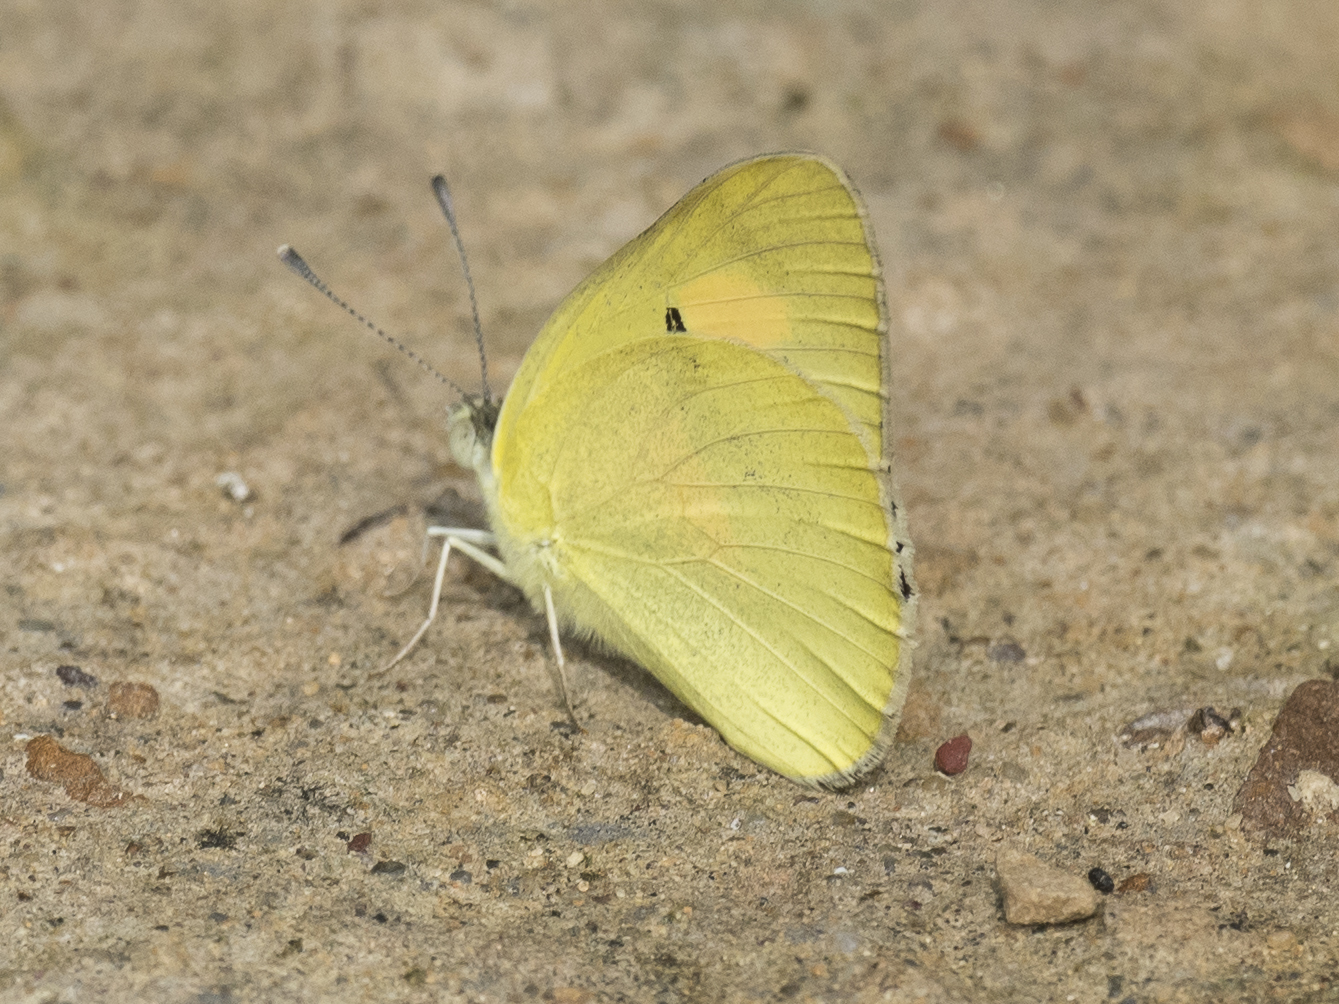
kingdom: Animalia
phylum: Arthropoda
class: Insecta
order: Lepidoptera
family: Pieridae
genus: Ixias
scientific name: Ixias pyrene
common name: Yellow orange tip
